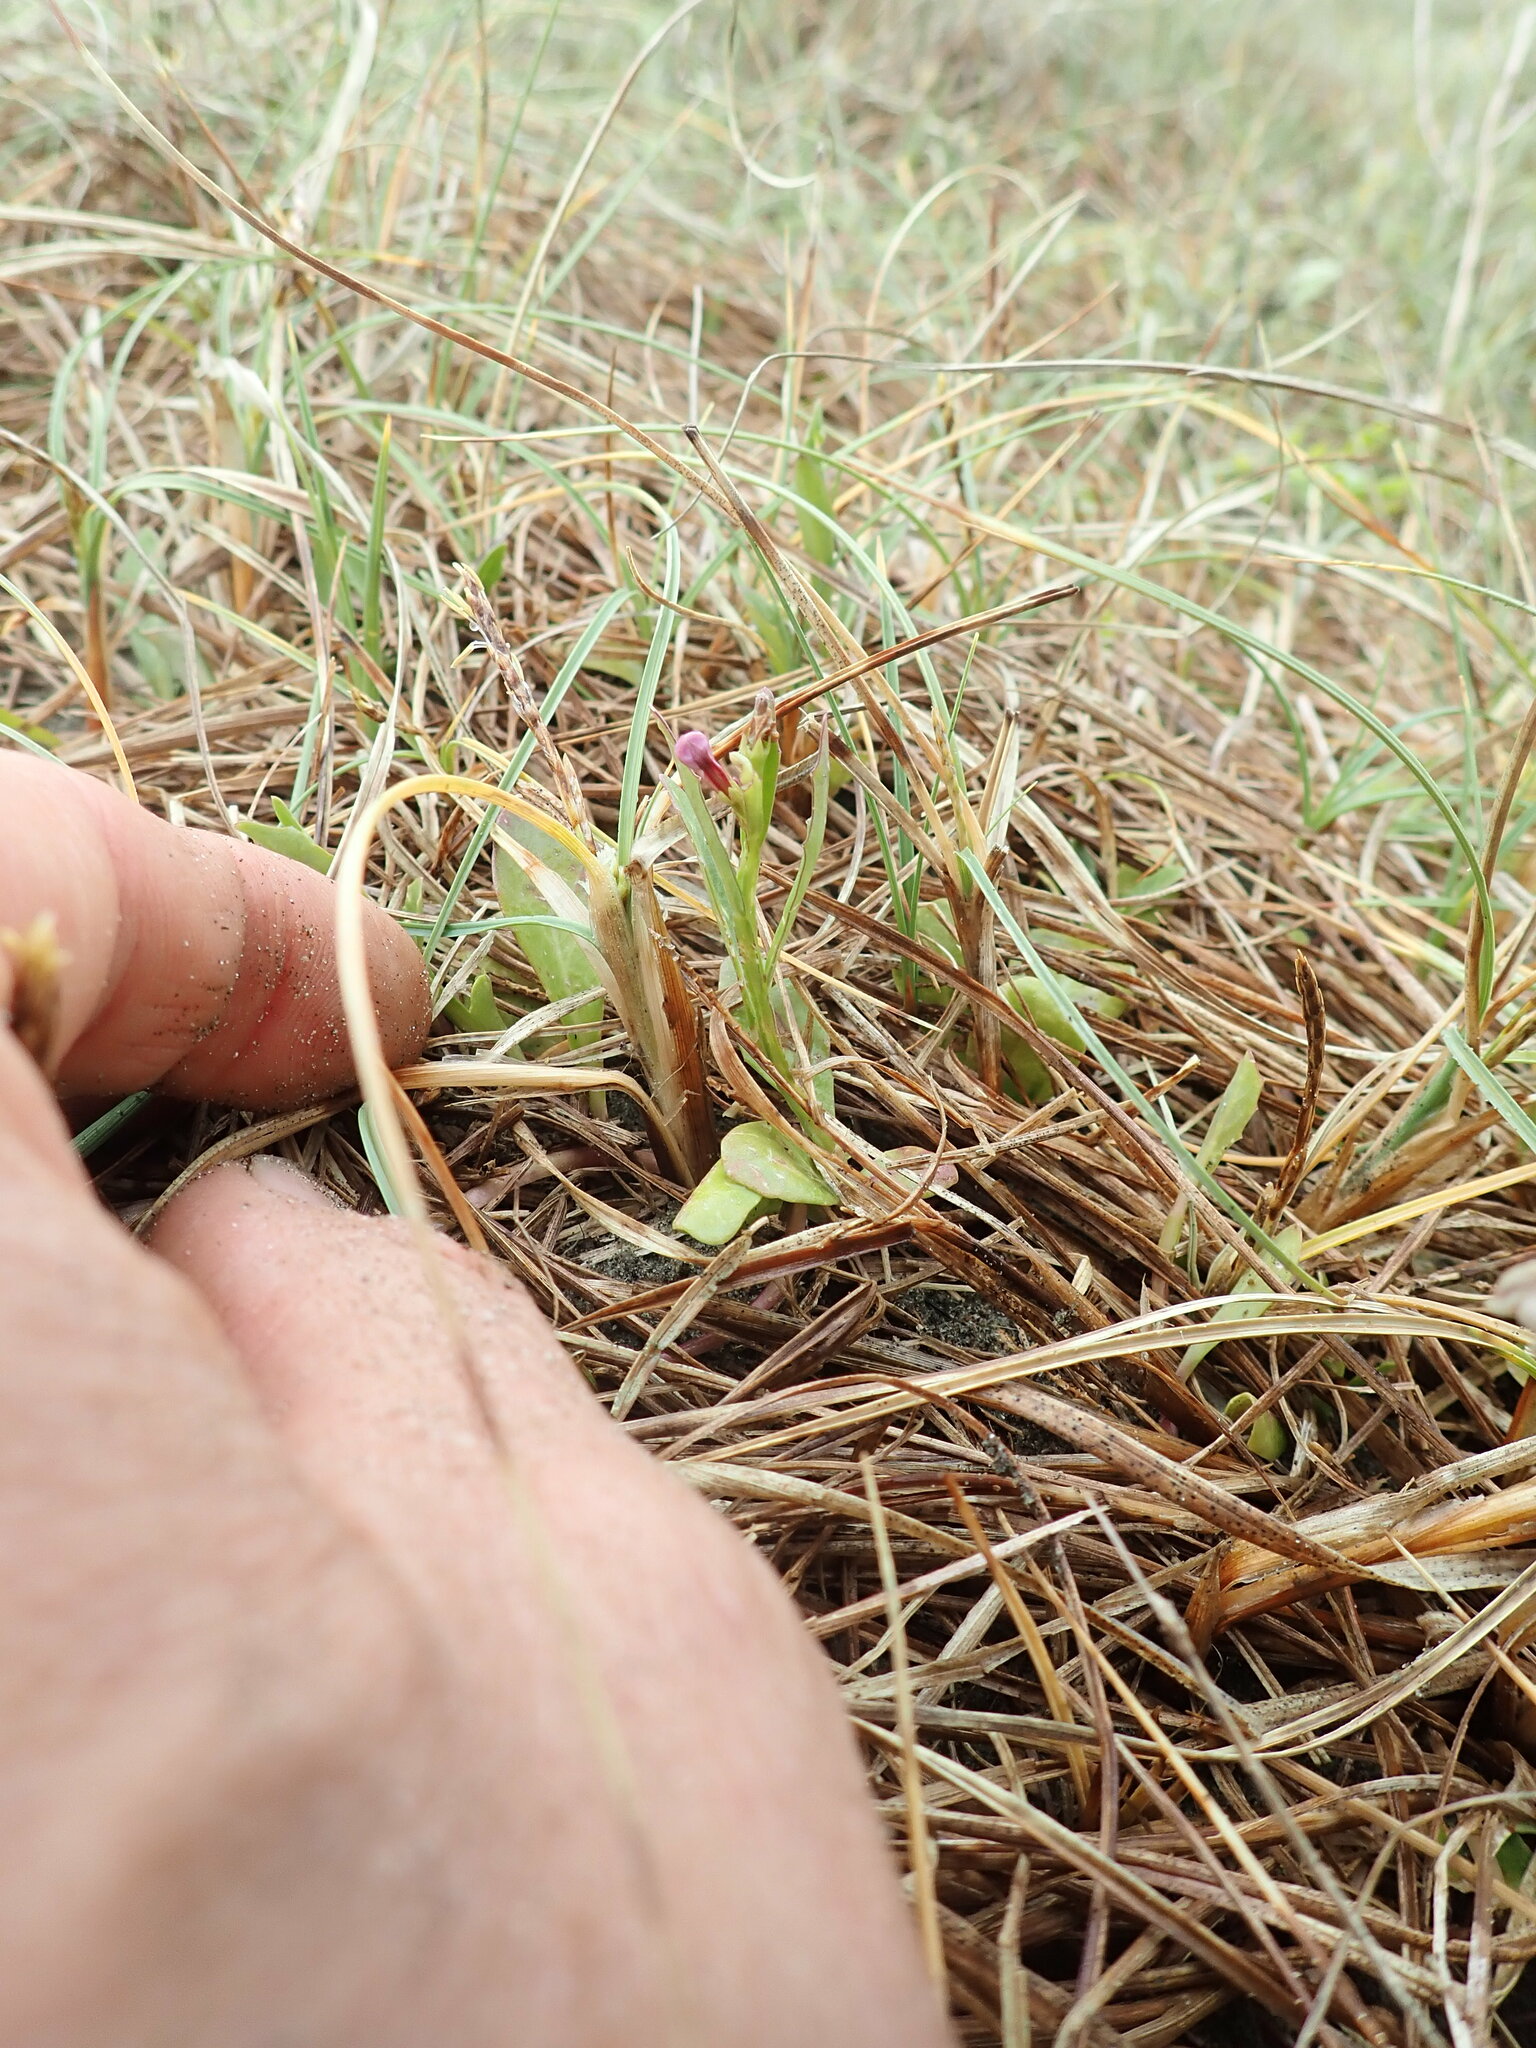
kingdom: Plantae
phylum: Tracheophyta
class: Magnoliopsida
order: Asterales
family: Campanulaceae
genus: Lobelia
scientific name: Lobelia anceps
